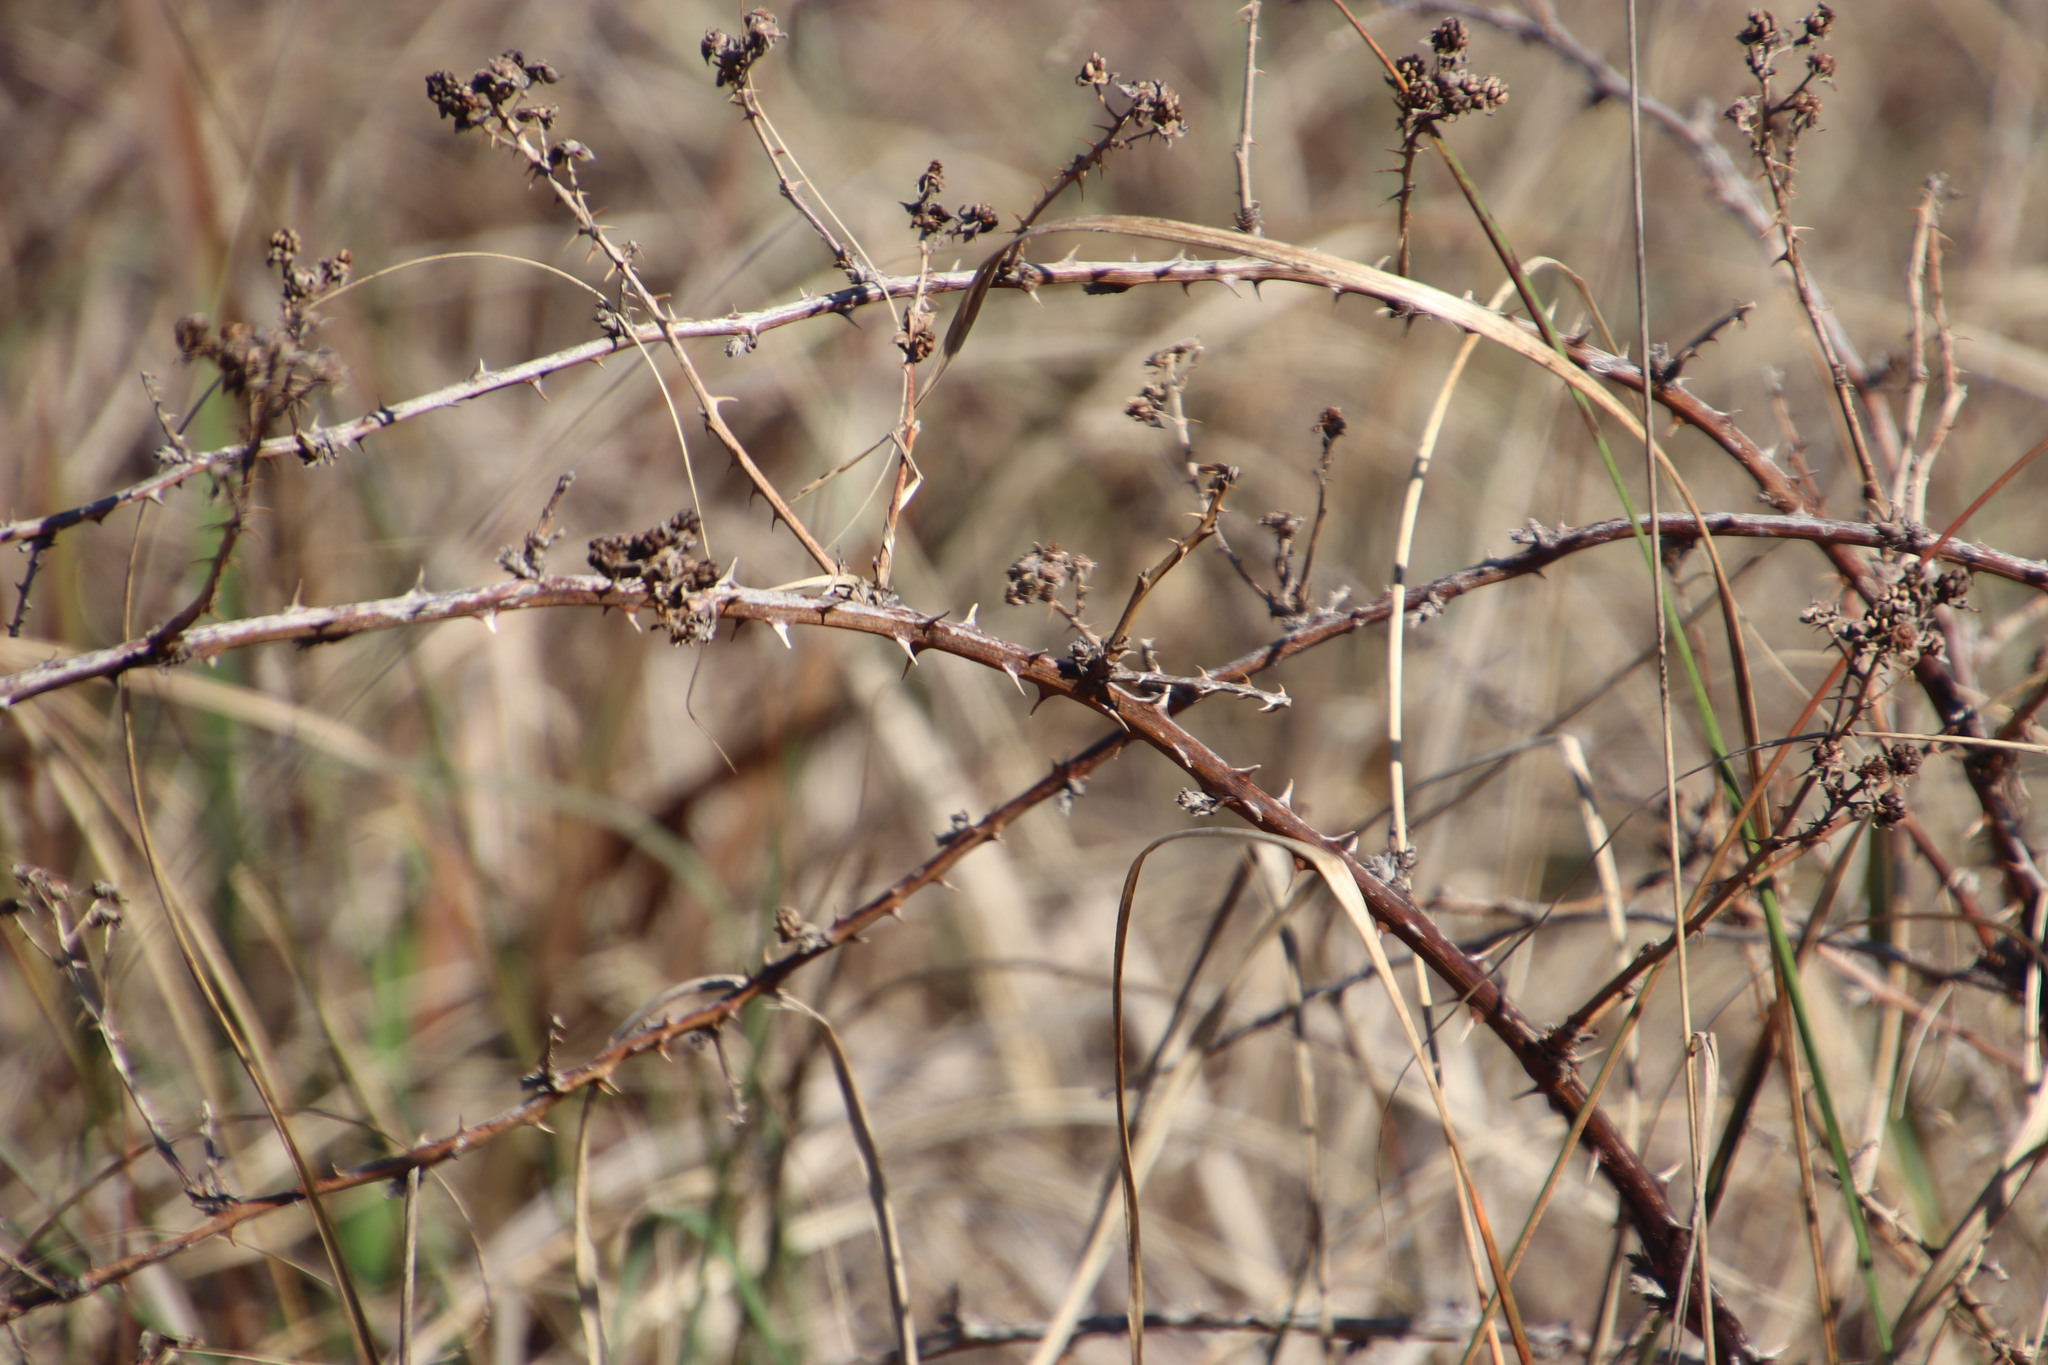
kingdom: Plantae
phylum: Tracheophyta
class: Magnoliopsida
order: Rosales
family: Rosaceae
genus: Rubus
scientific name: Rubus affinis
